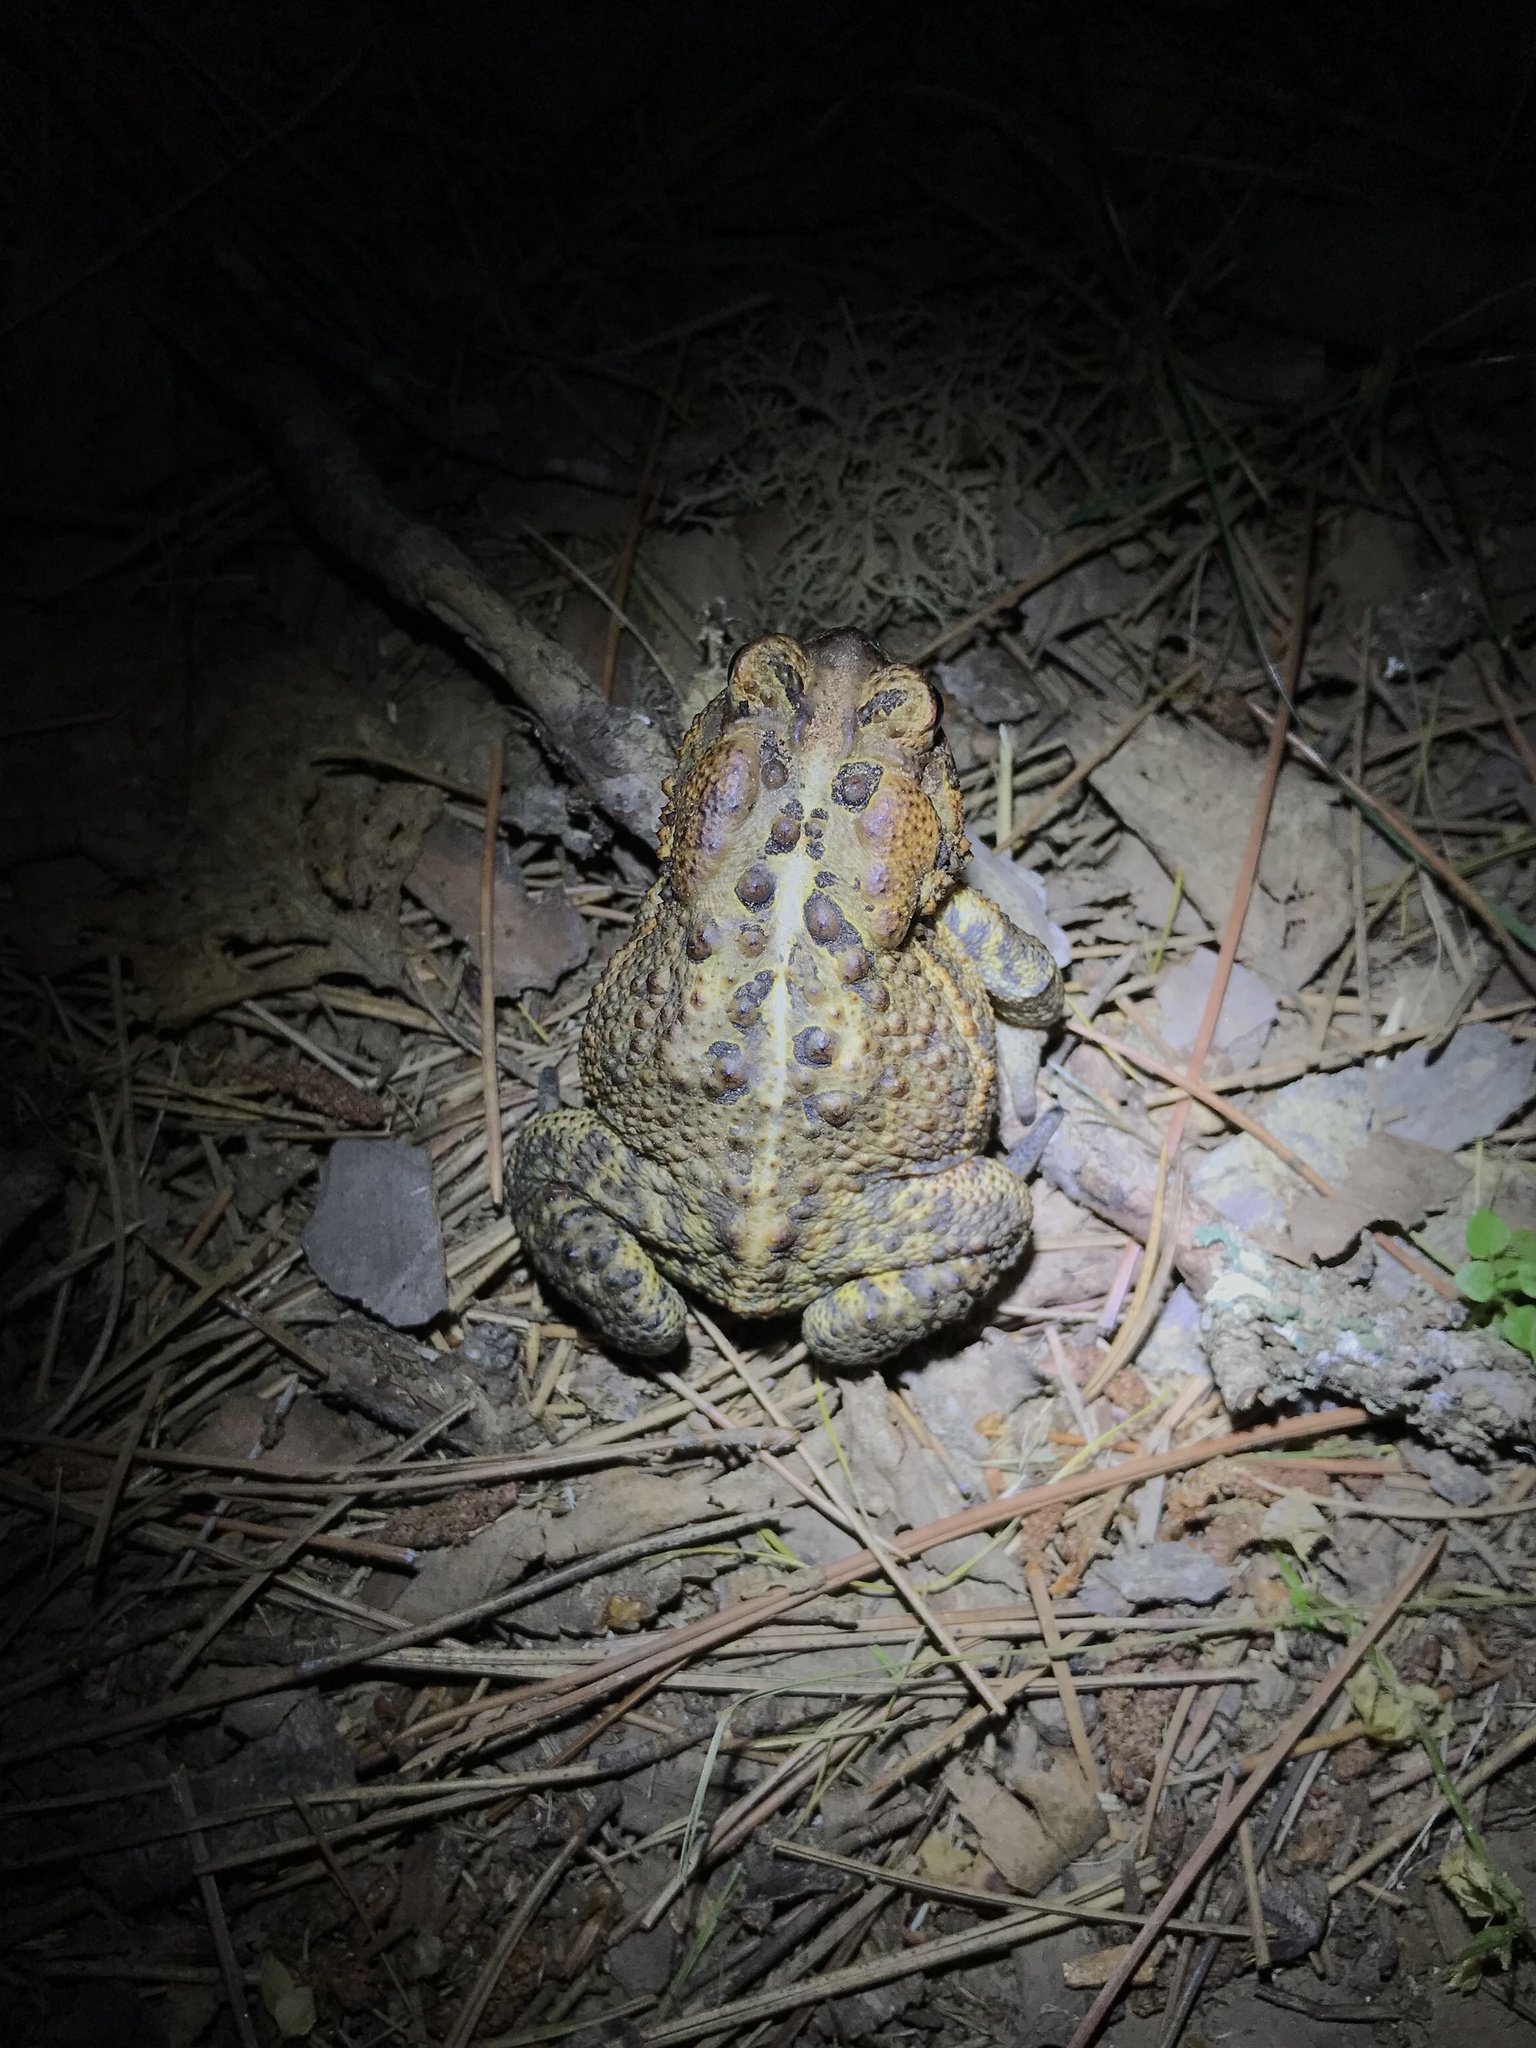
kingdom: Animalia
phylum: Chordata
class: Amphibia
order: Anura
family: Bufonidae
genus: Anaxyrus
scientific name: Anaxyrus americanus
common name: American toad
